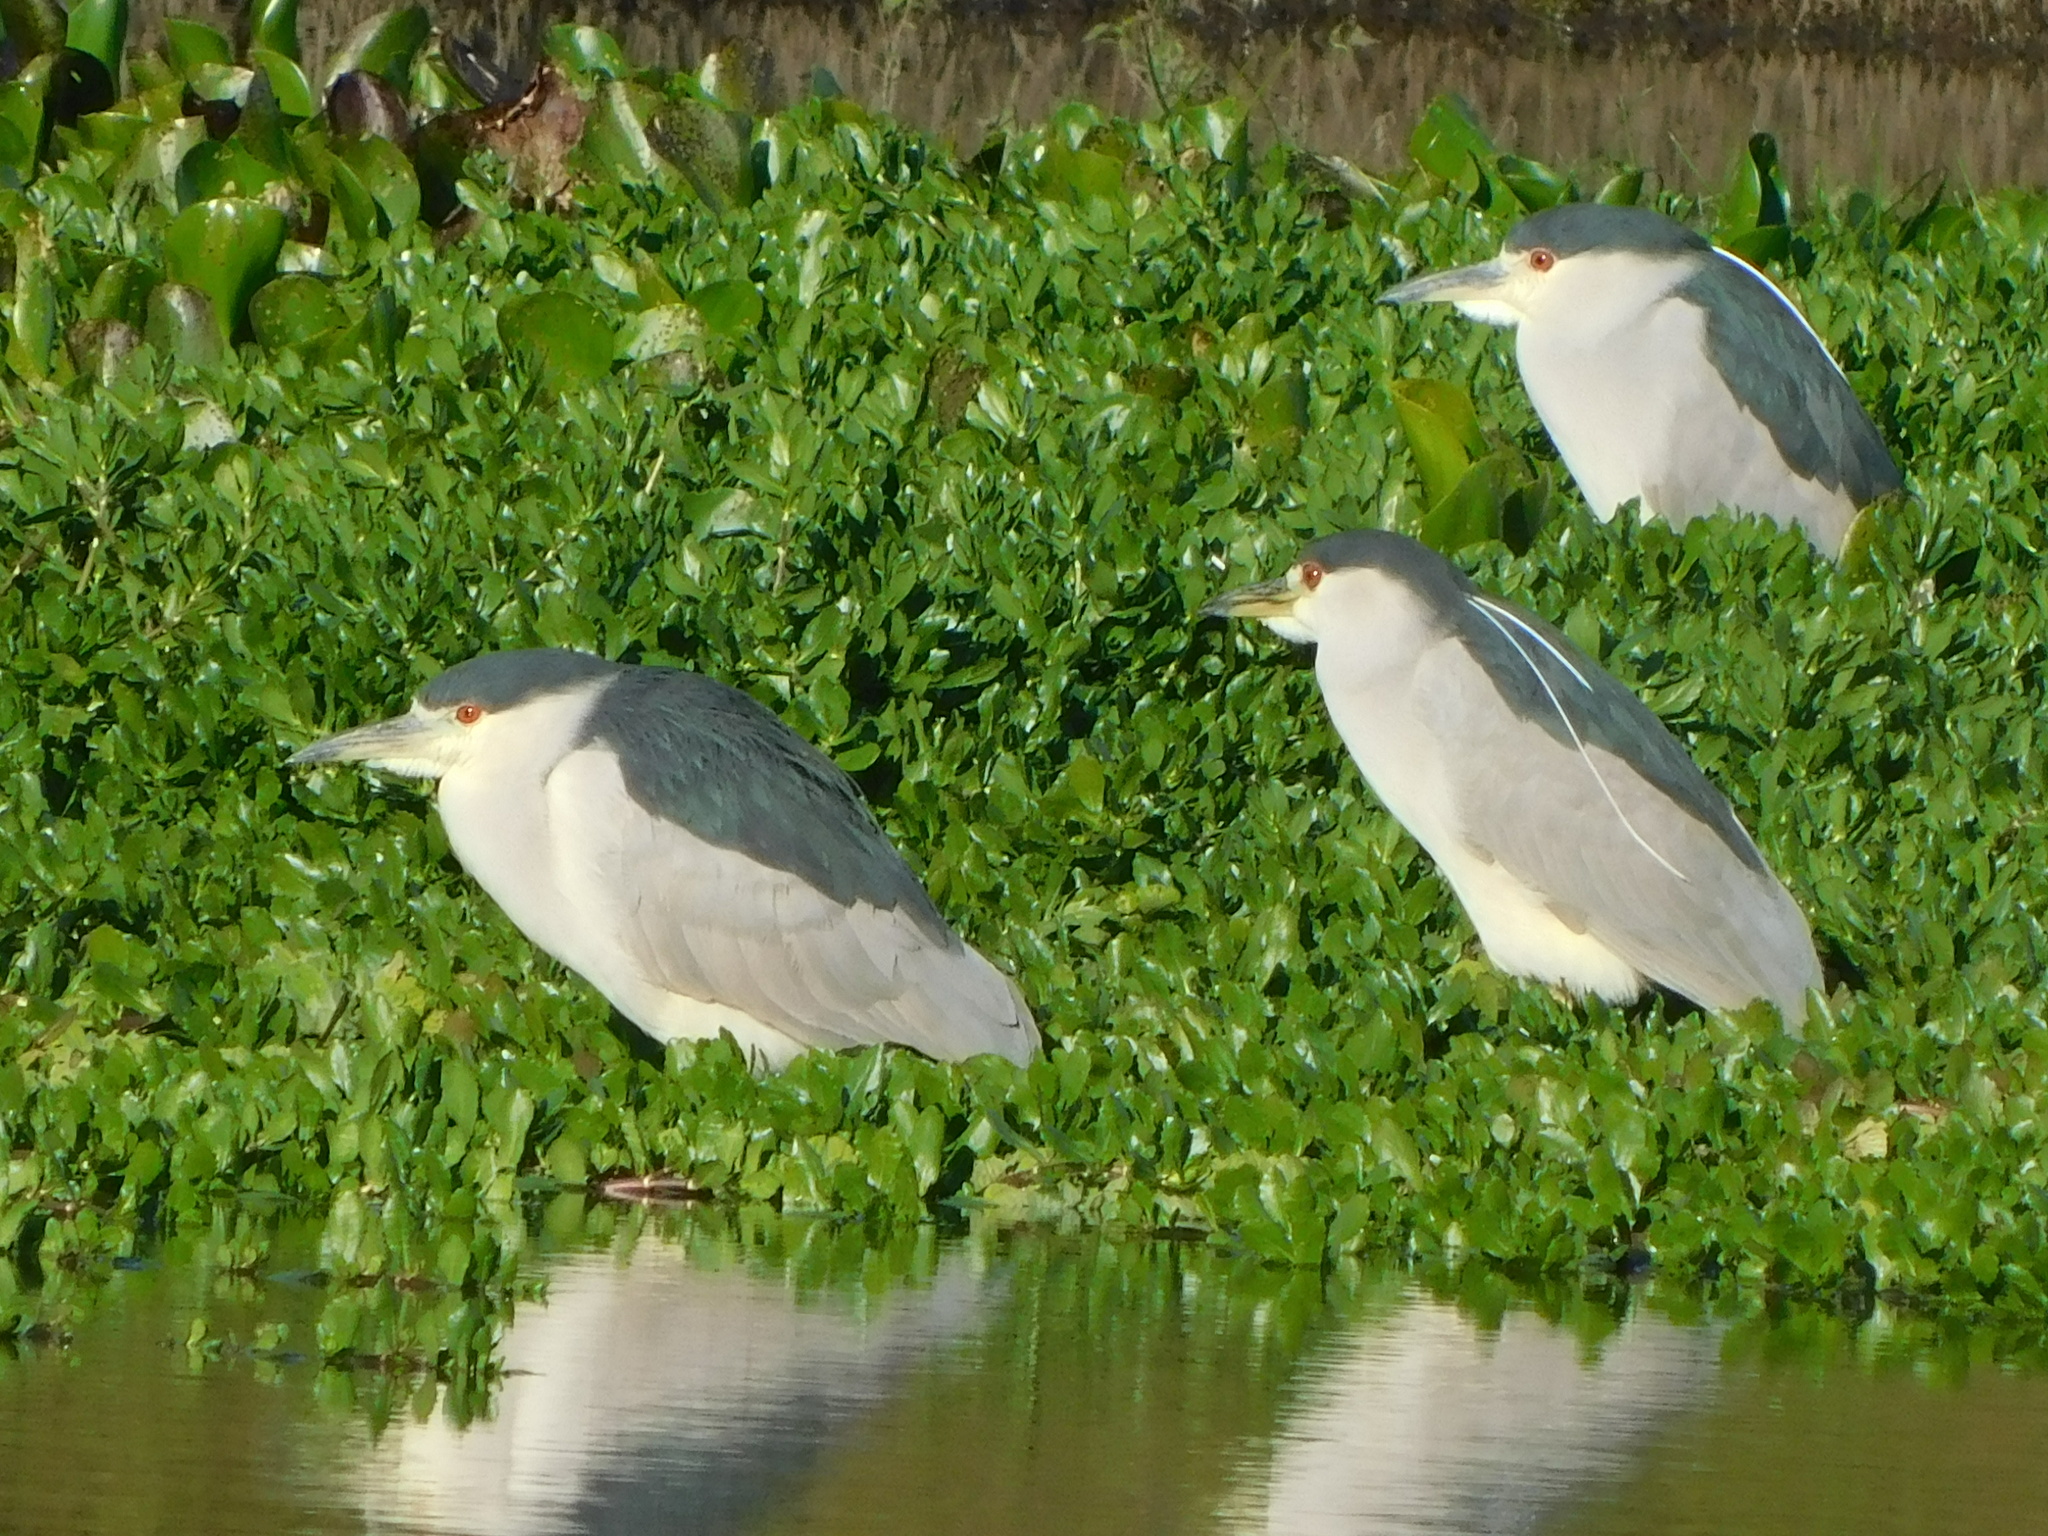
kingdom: Animalia
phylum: Chordata
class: Aves
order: Pelecaniformes
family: Ardeidae
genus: Nycticorax
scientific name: Nycticorax nycticorax
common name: Black-crowned night heron
